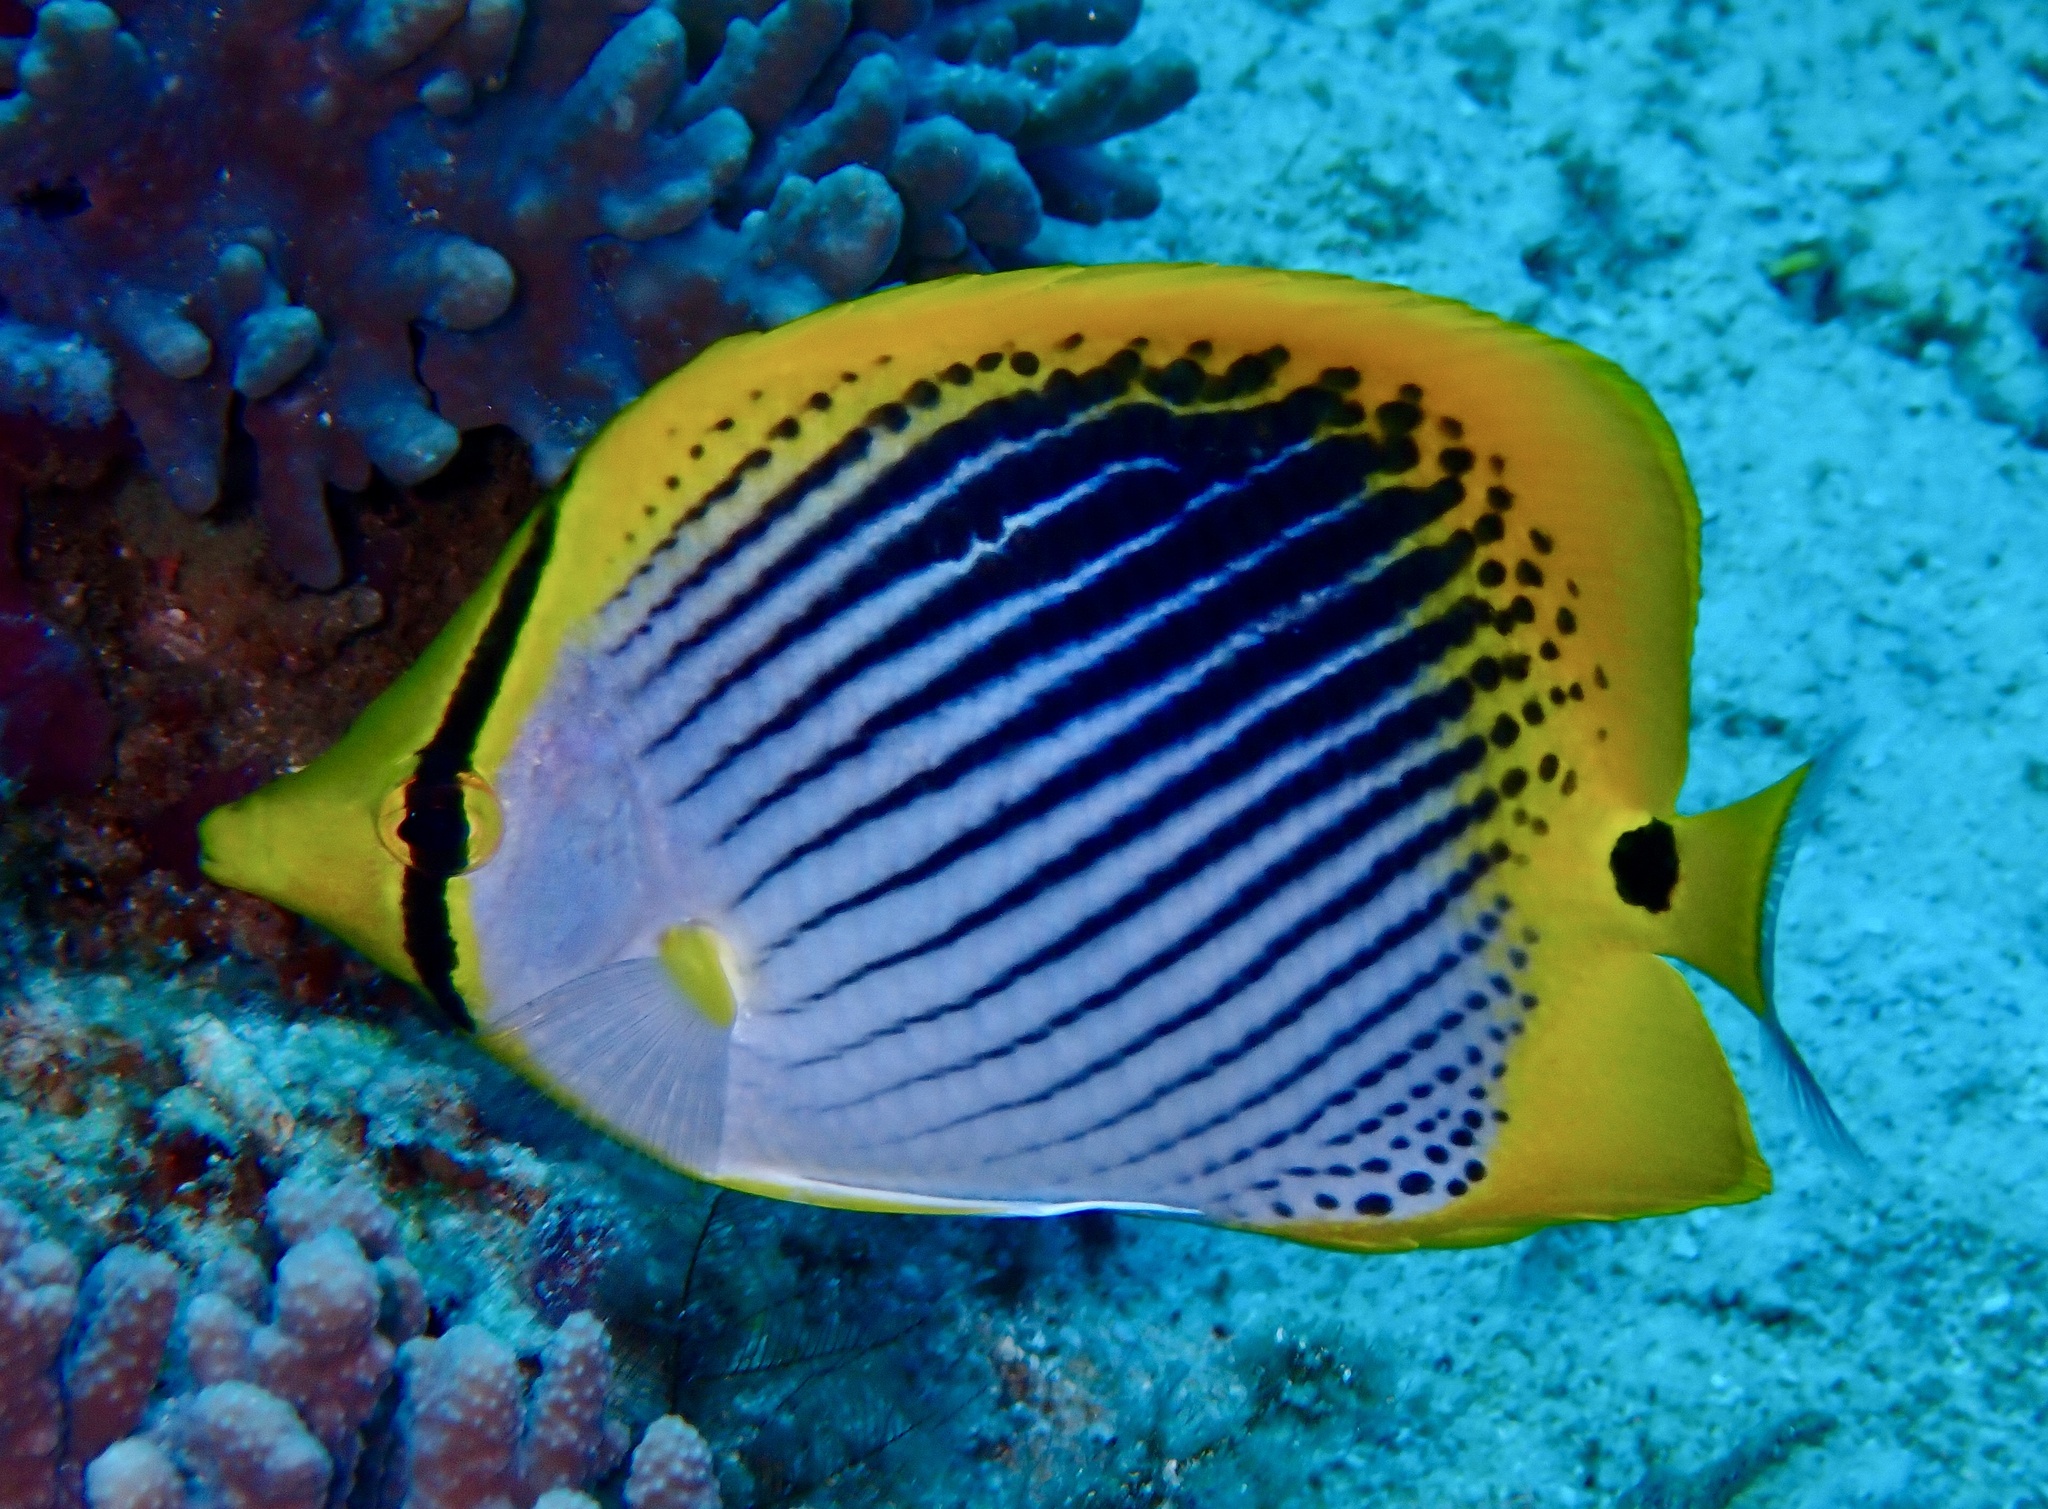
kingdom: Animalia
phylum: Chordata
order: Perciformes
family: Chaetodontidae
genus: Chaetodon
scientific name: Chaetodon ocellicaudus
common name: Spot-tail butterflyfish
